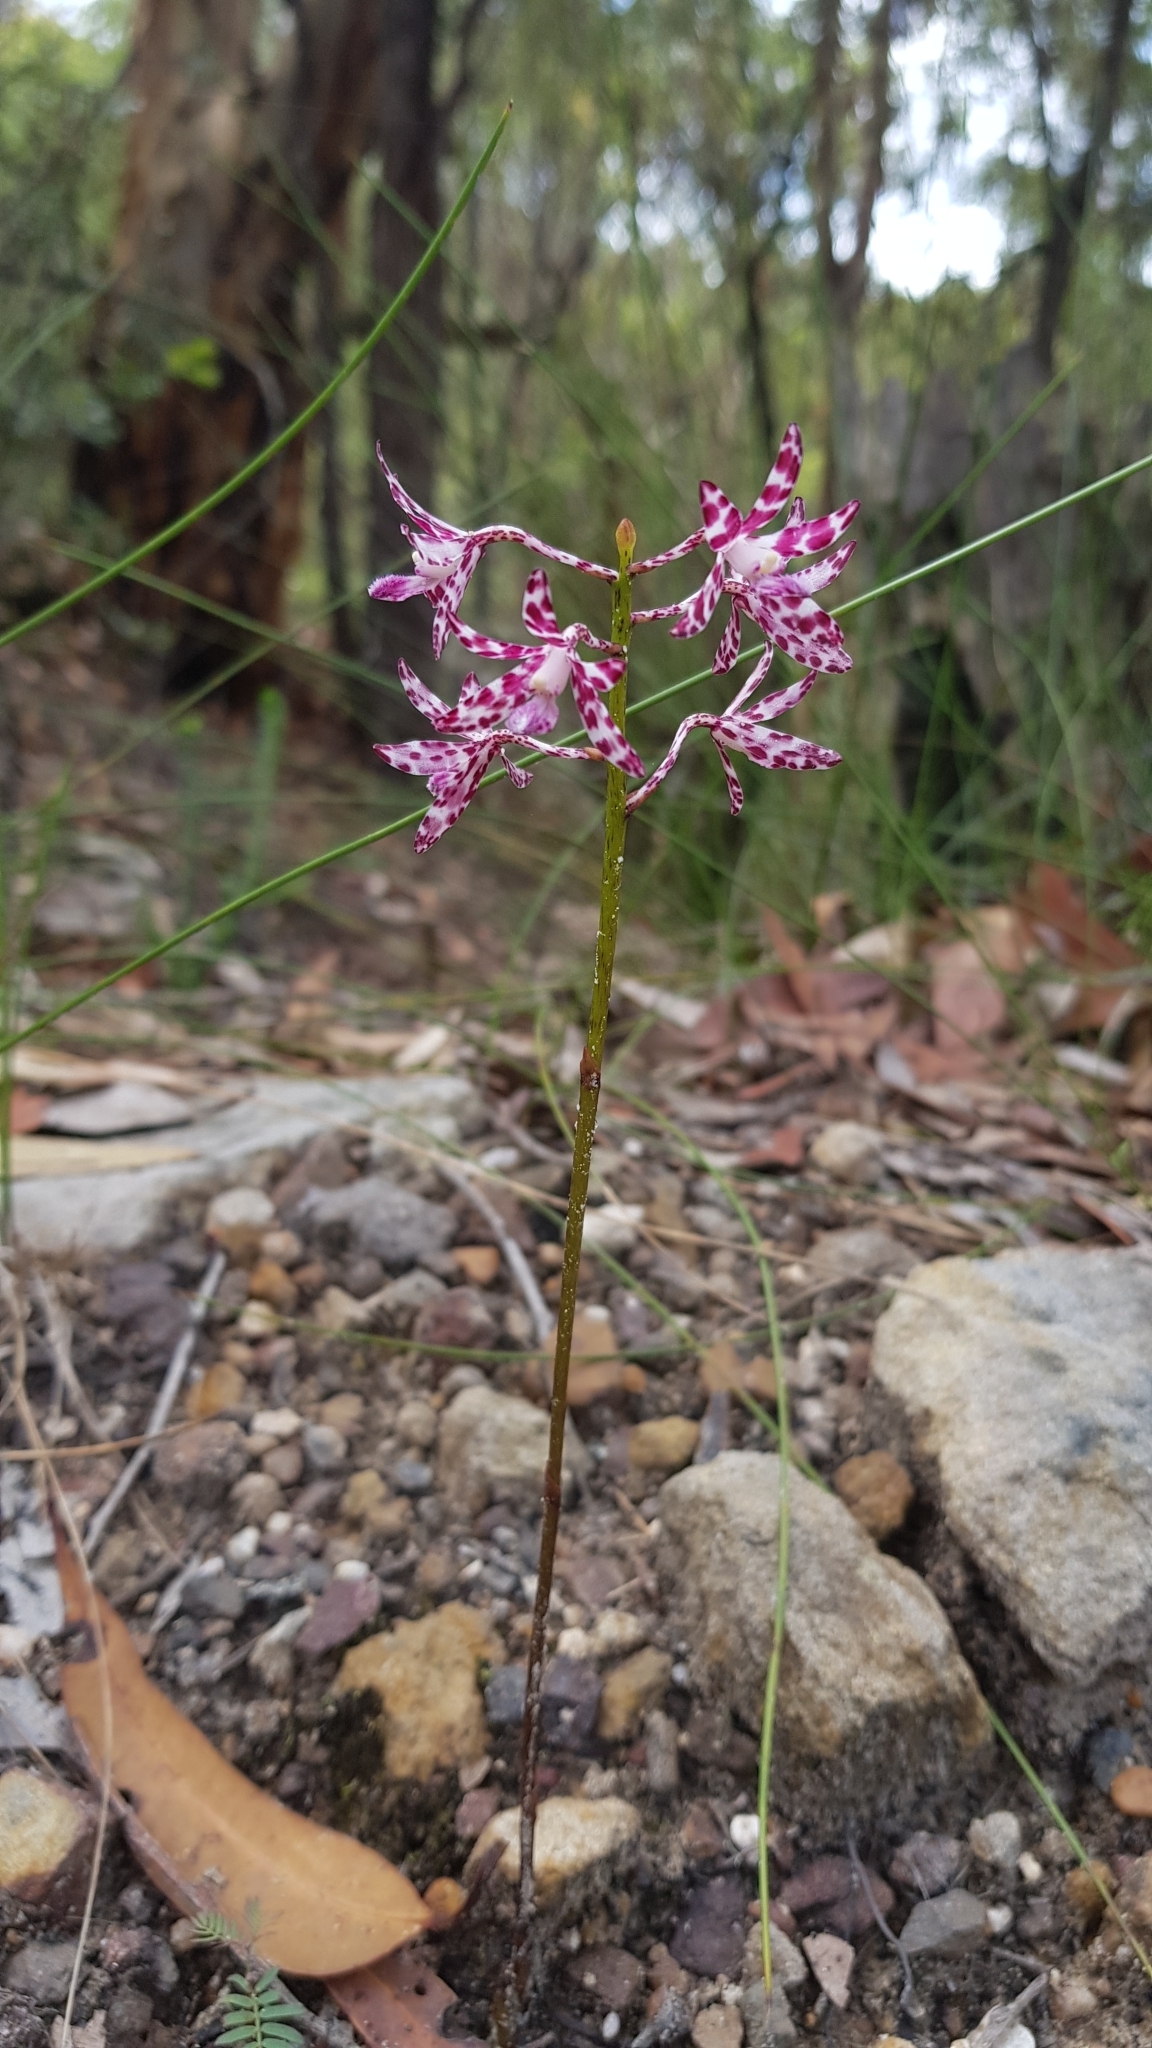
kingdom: Plantae
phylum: Tracheophyta
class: Liliopsida
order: Asparagales
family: Orchidaceae
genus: Dipodium
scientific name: Dipodium variegatum
